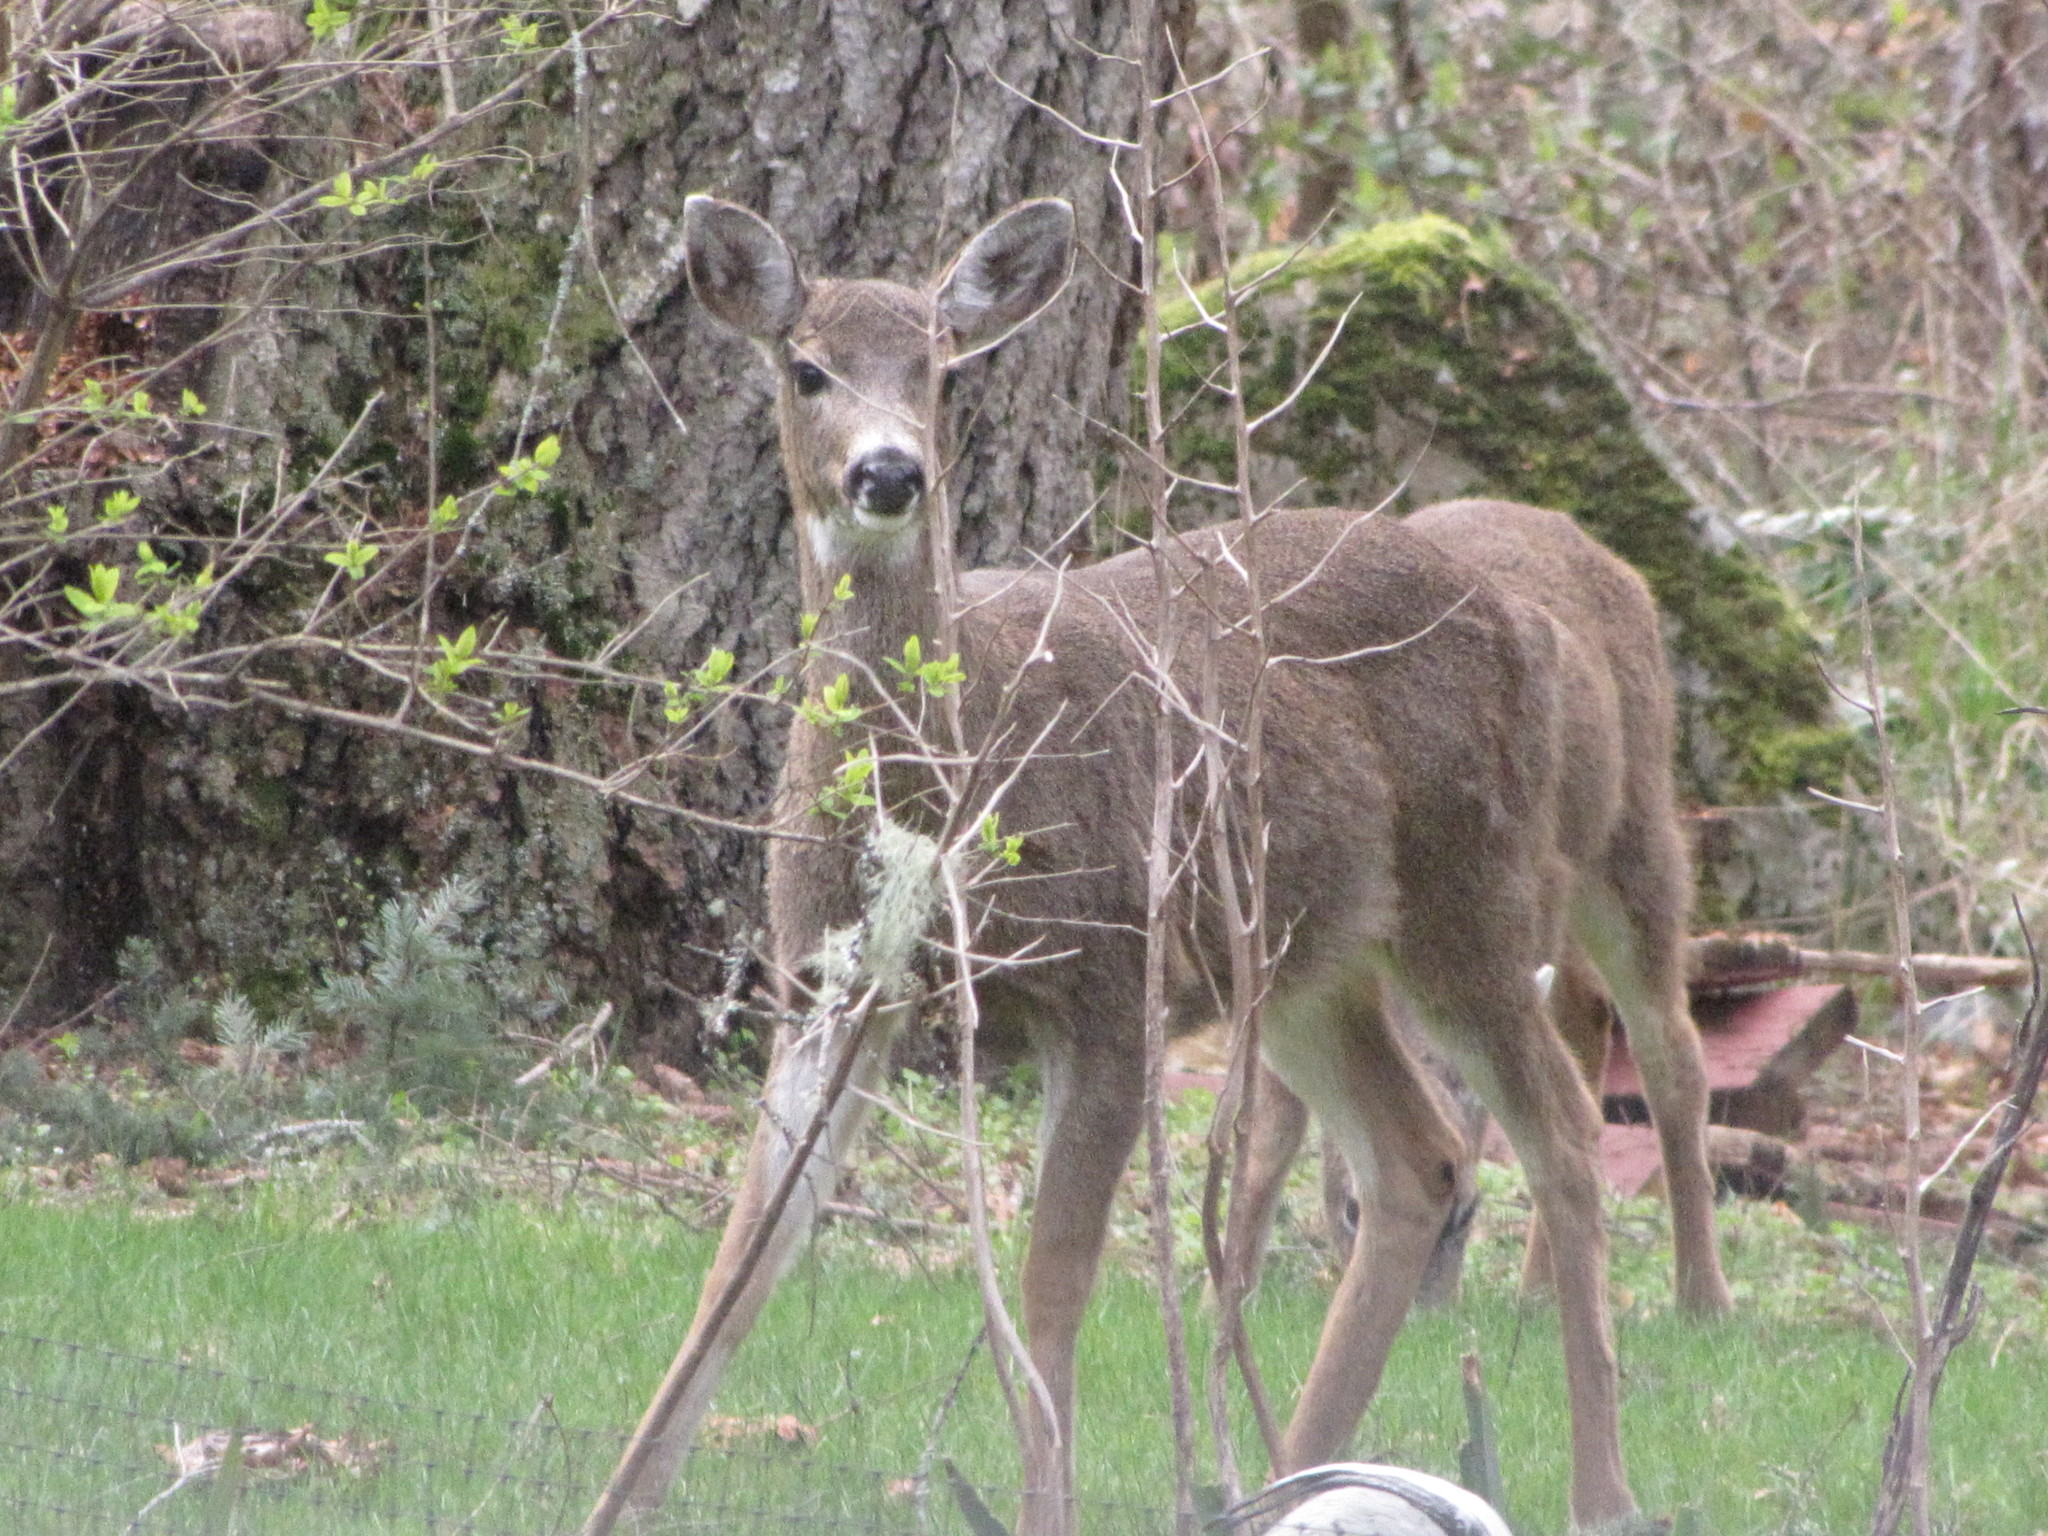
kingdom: Animalia
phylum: Chordata
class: Mammalia
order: Artiodactyla
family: Cervidae
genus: Odocoileus
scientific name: Odocoileus hemionus
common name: Mule deer
